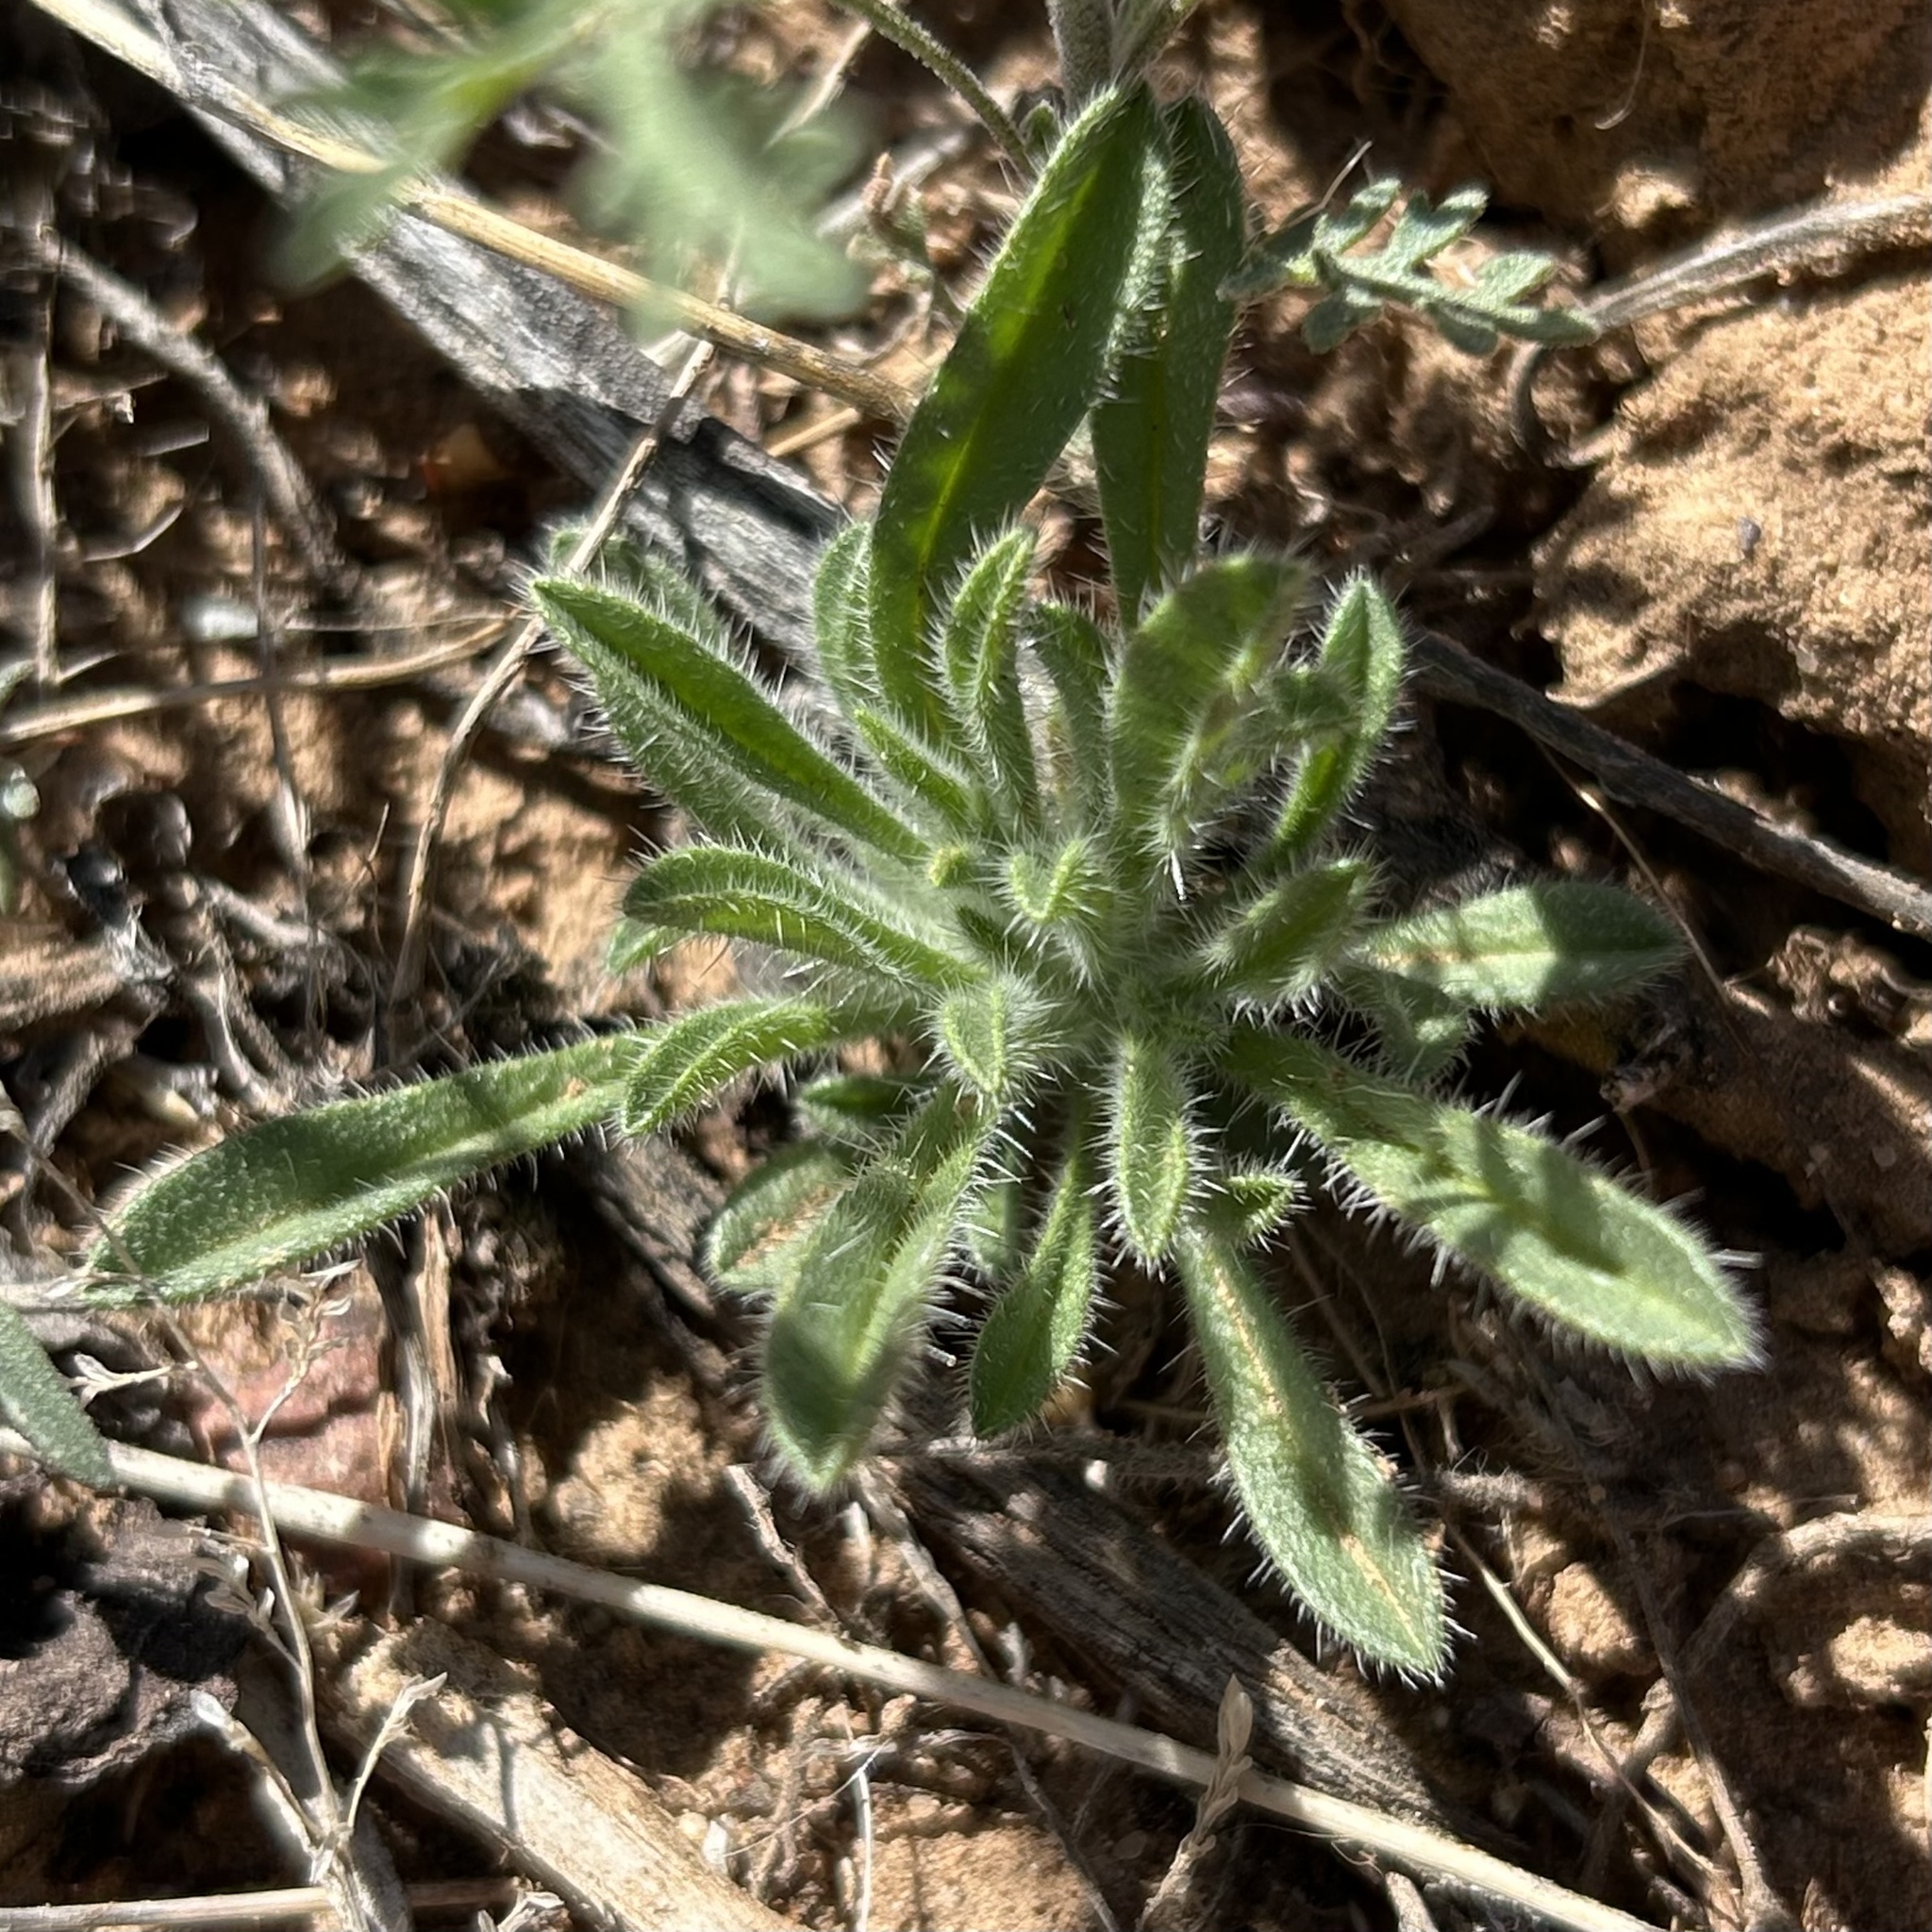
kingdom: Plantae
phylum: Tracheophyta
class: Magnoliopsida
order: Boraginales
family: Boraginaceae
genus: Lappula
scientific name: Lappula occidentalis
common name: Western stickseed
